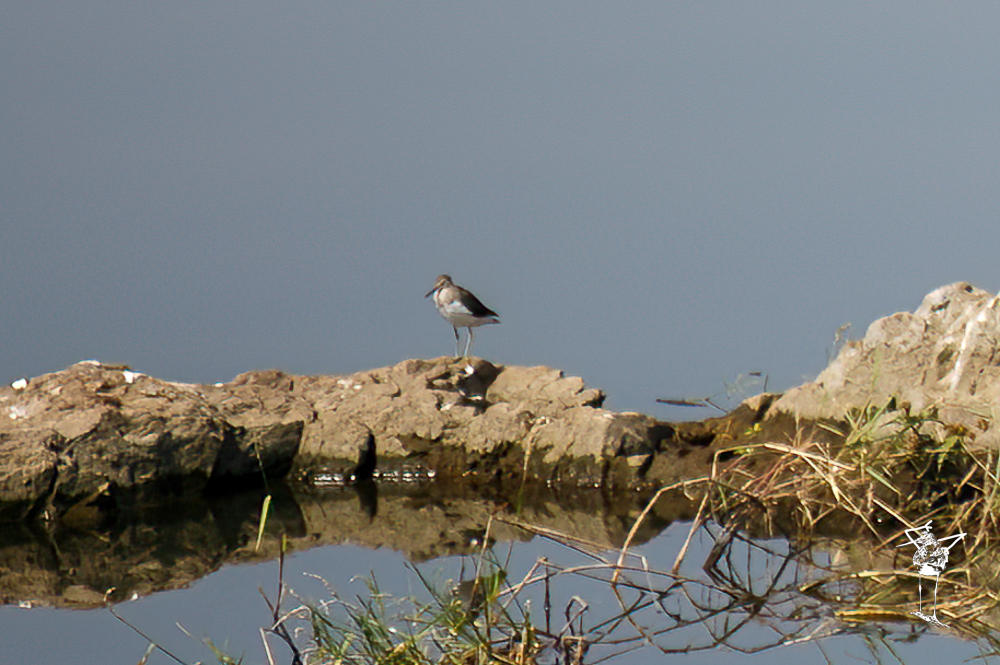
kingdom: Animalia
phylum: Chordata
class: Aves
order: Charadriiformes
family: Scolopacidae
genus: Actitis
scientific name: Actitis hypoleucos
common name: Common sandpiper
